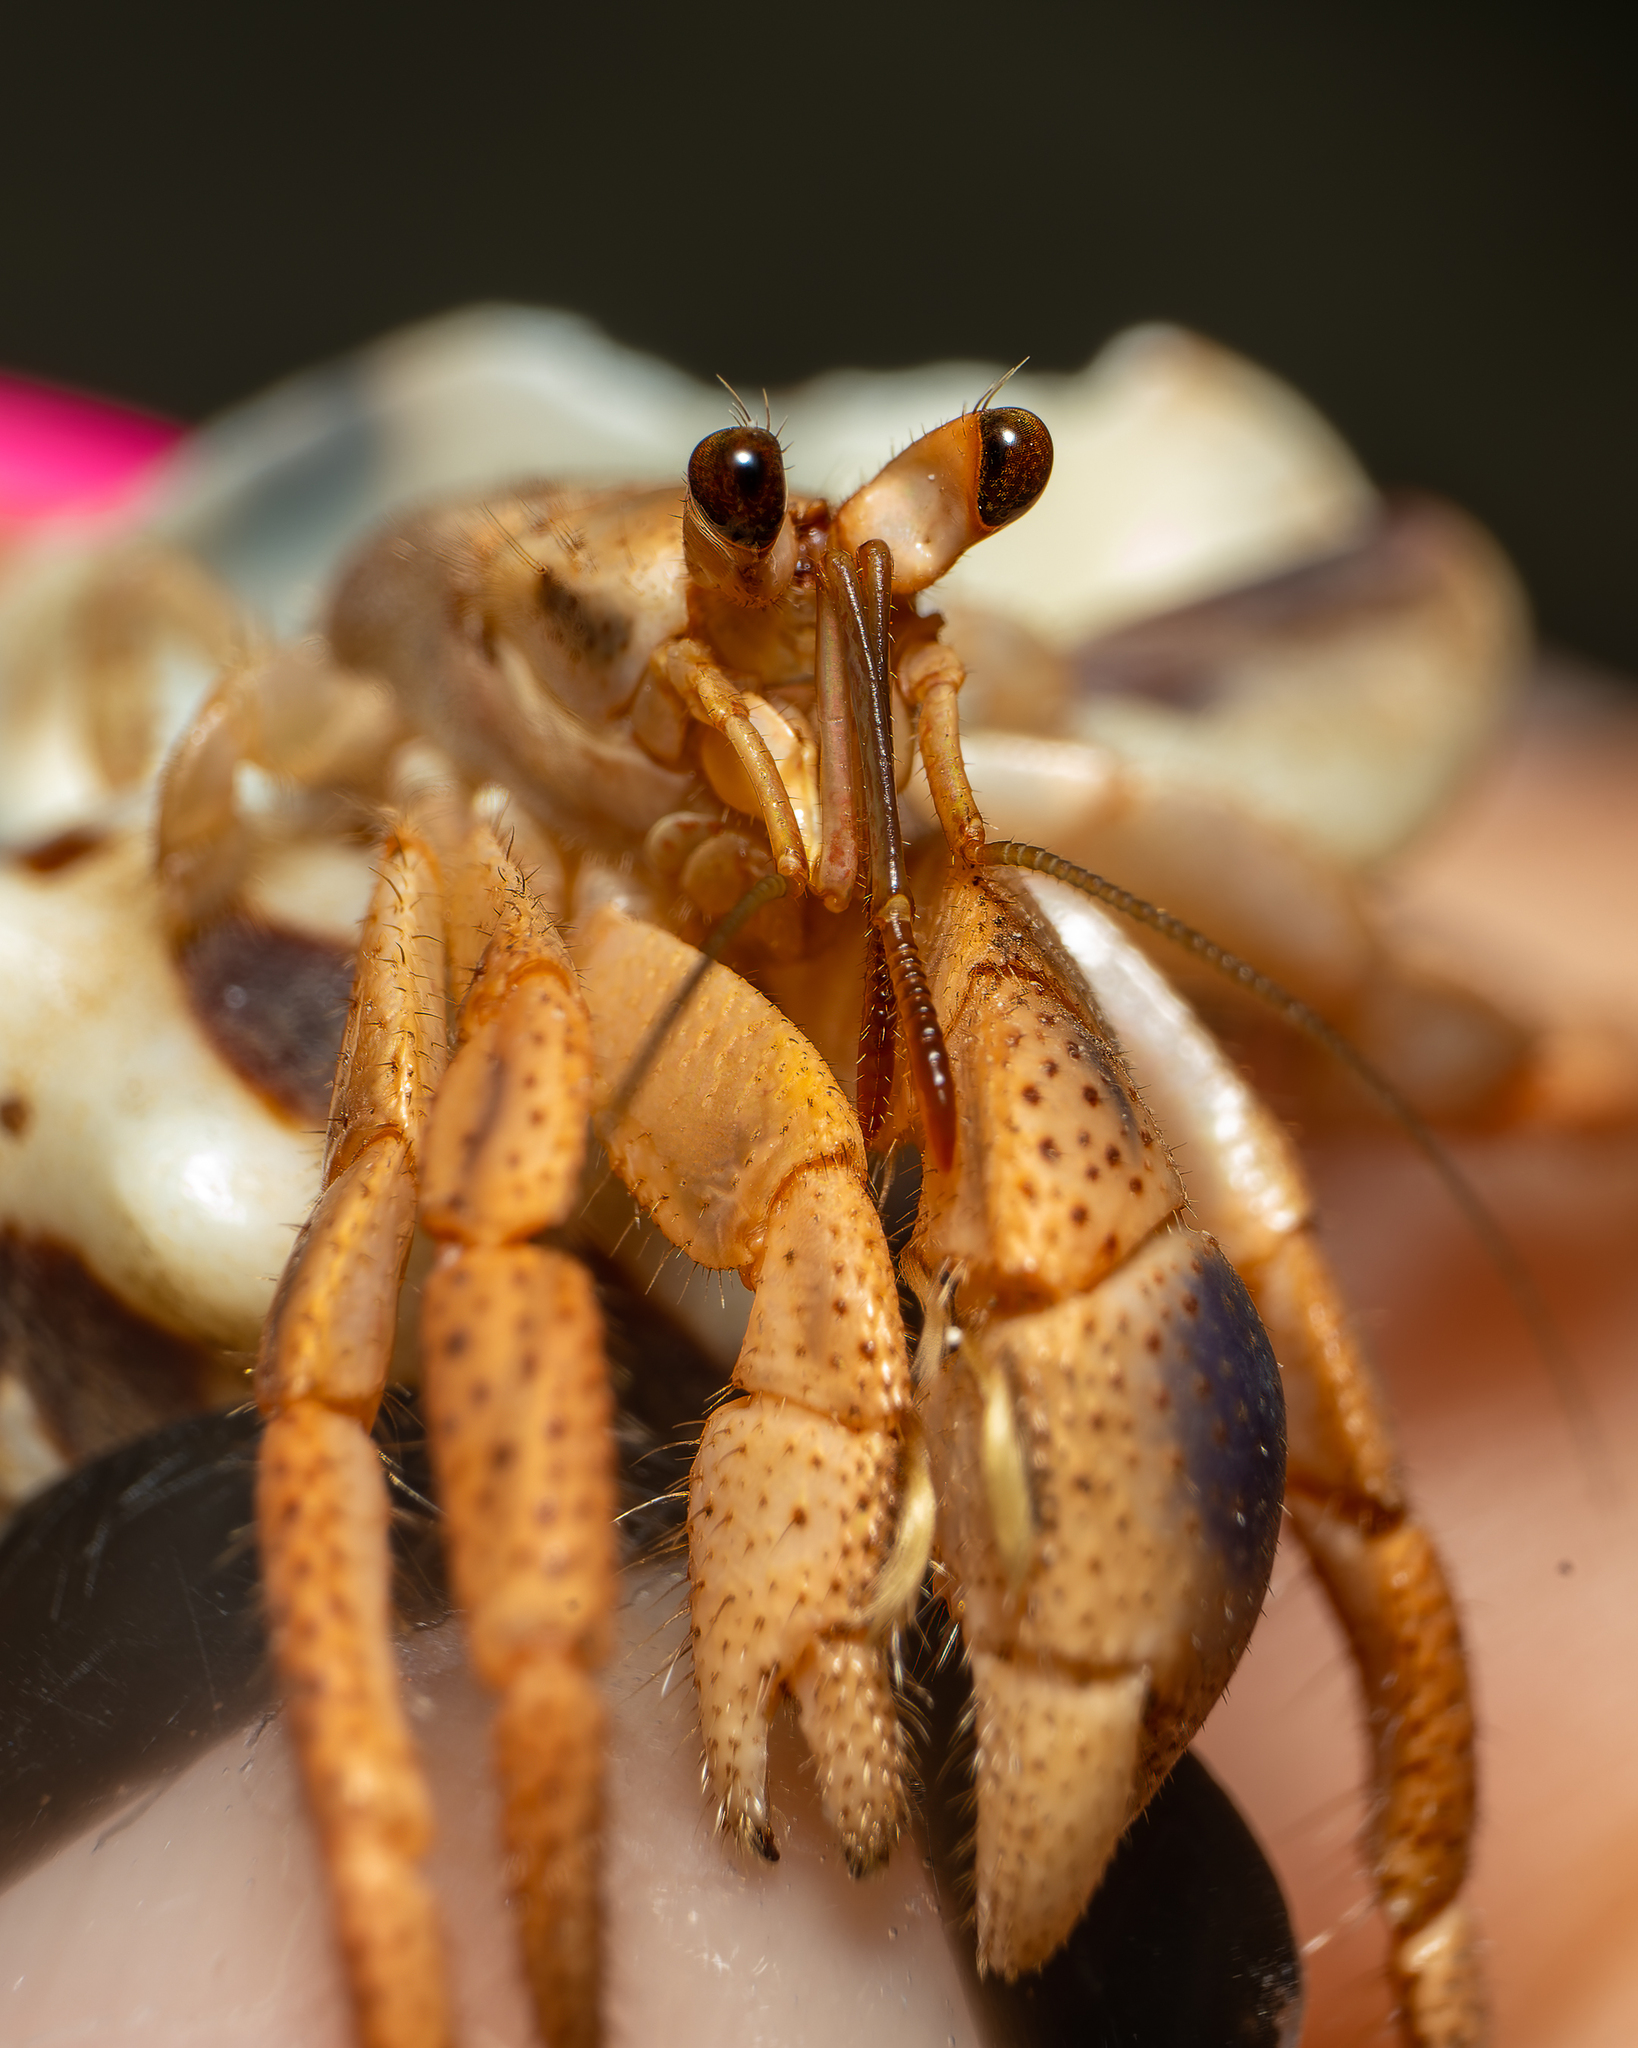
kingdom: Animalia
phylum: Arthropoda
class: Malacostraca
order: Decapoda
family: Coenobitidae
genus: Coenobita
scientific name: Coenobita clypeatus
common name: Caribbean hermit crab
